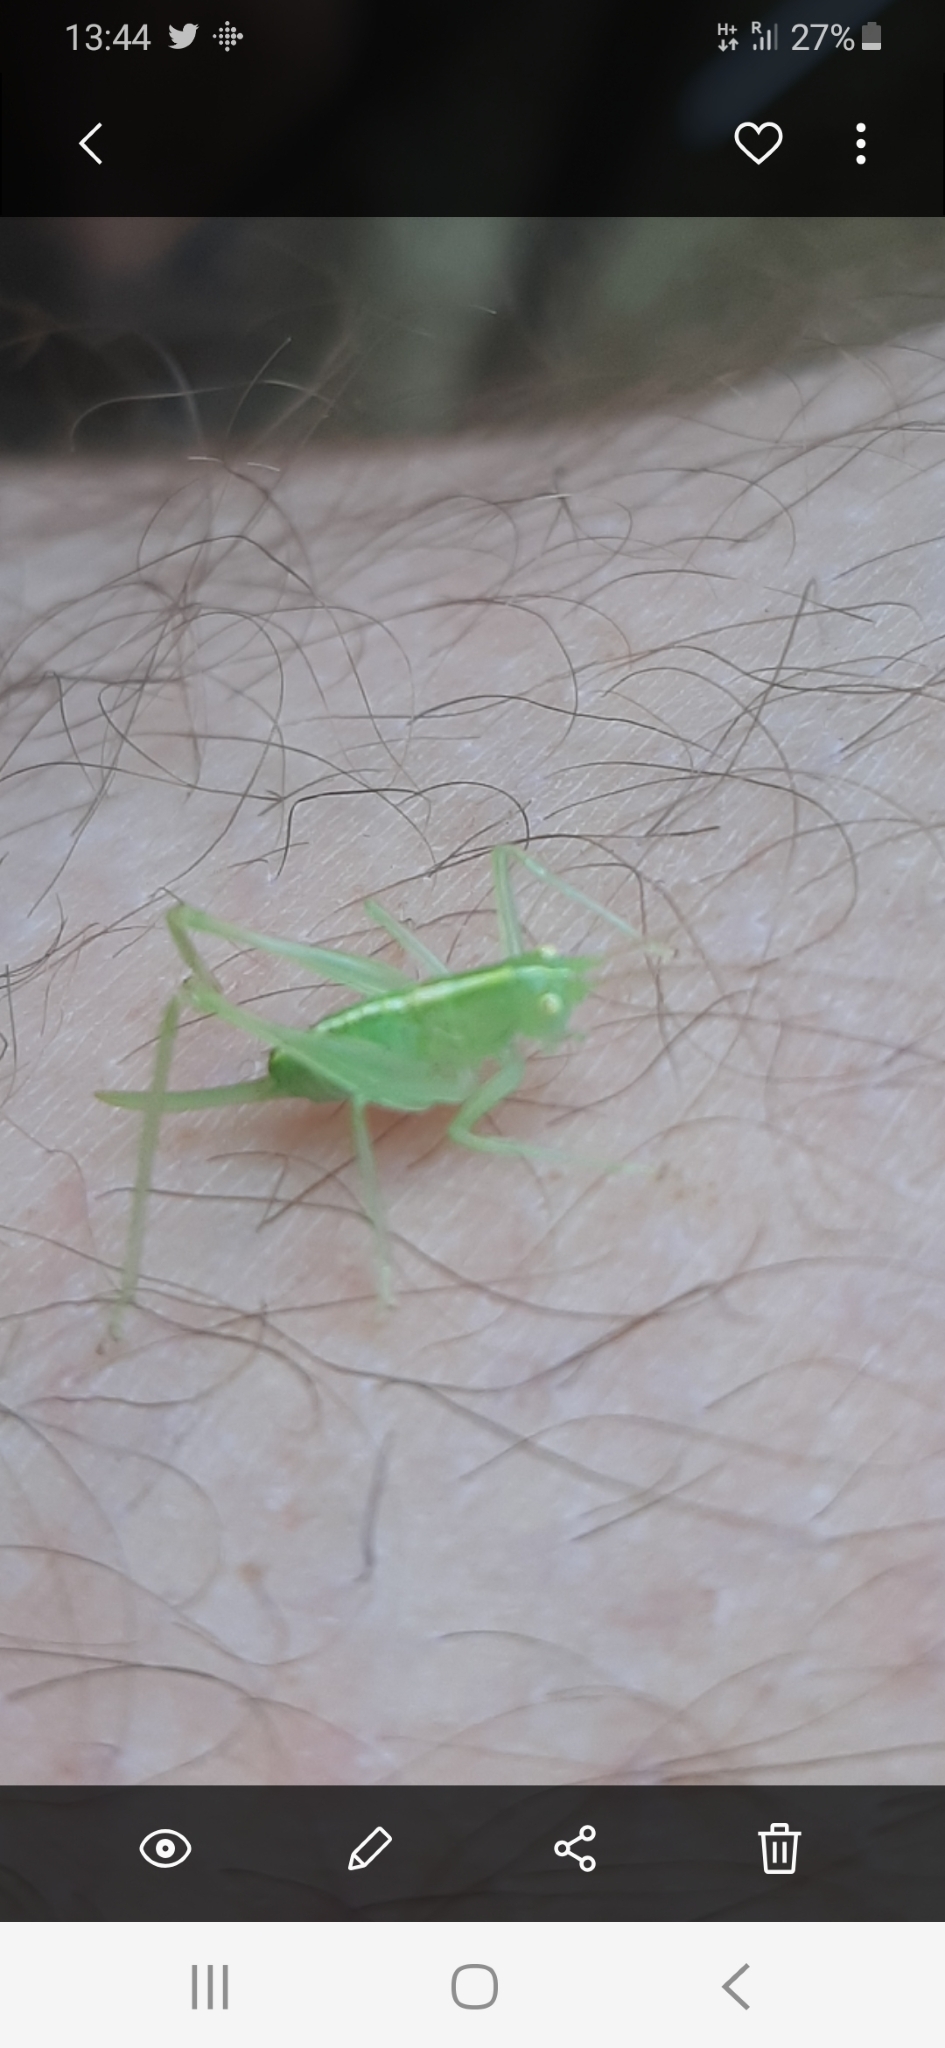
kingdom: Animalia
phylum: Arthropoda
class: Insecta
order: Orthoptera
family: Tettigoniidae
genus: Meconema
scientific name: Meconema meridionale
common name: Southern oak bush-cricket
